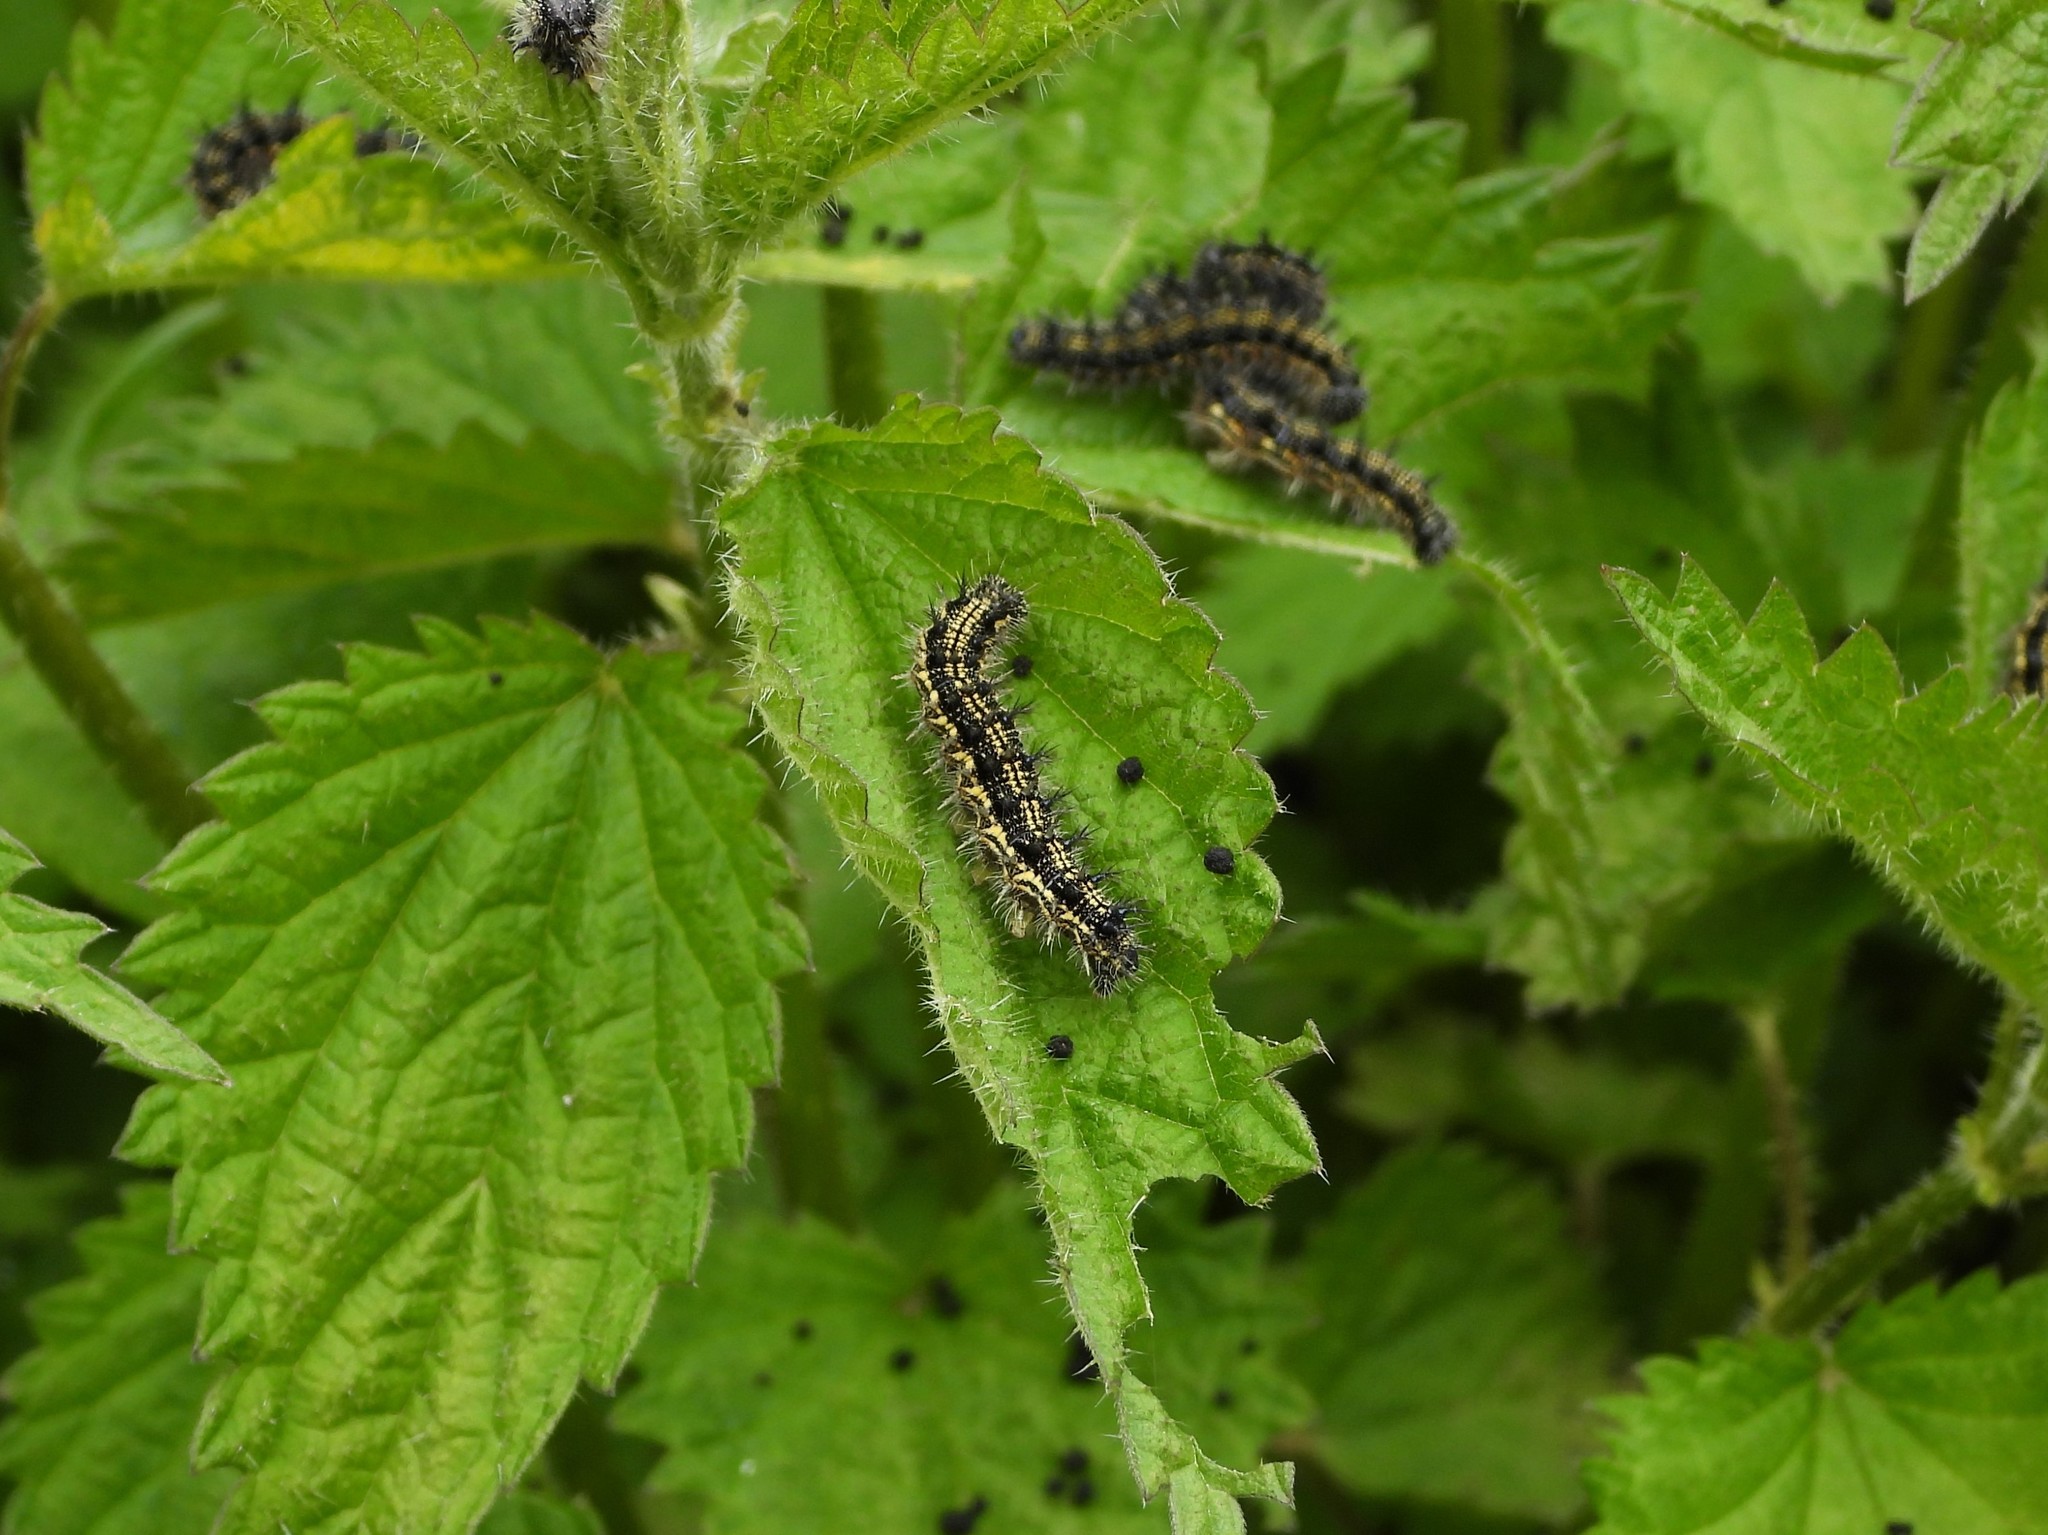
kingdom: Animalia
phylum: Arthropoda
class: Insecta
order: Lepidoptera
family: Nymphalidae
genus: Aglais
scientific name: Aglais urticae
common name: Small tortoiseshell
